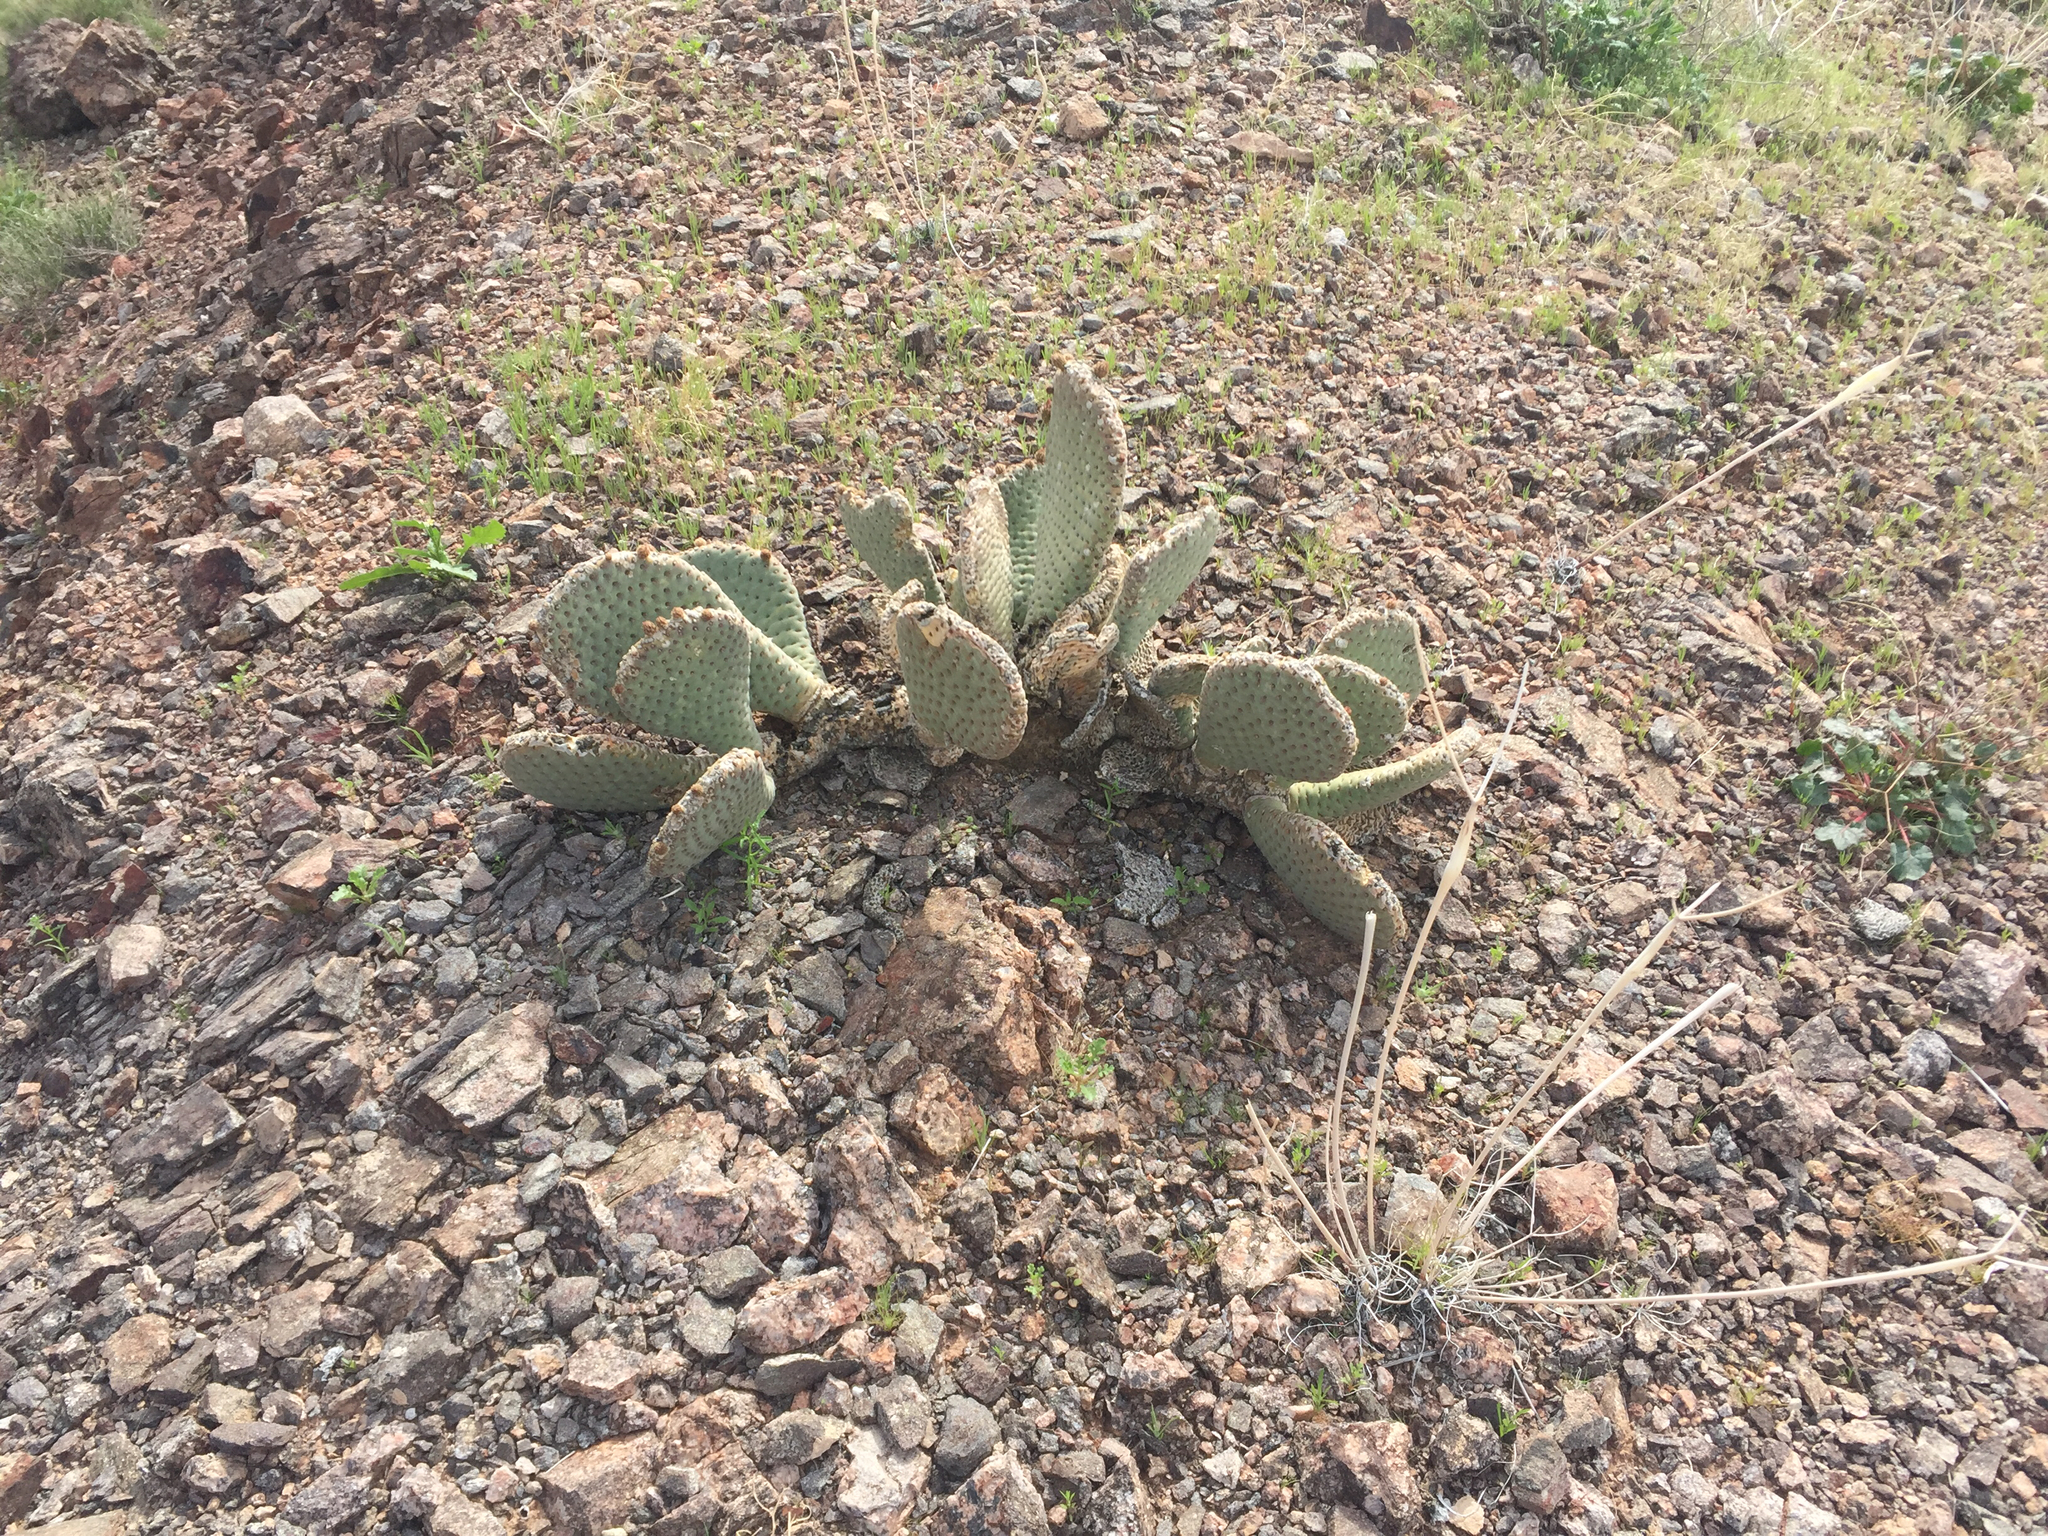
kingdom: Plantae
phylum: Tracheophyta
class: Magnoliopsida
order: Caryophyllales
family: Cactaceae
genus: Opuntia
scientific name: Opuntia basilaris
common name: Beavertail prickly-pear
